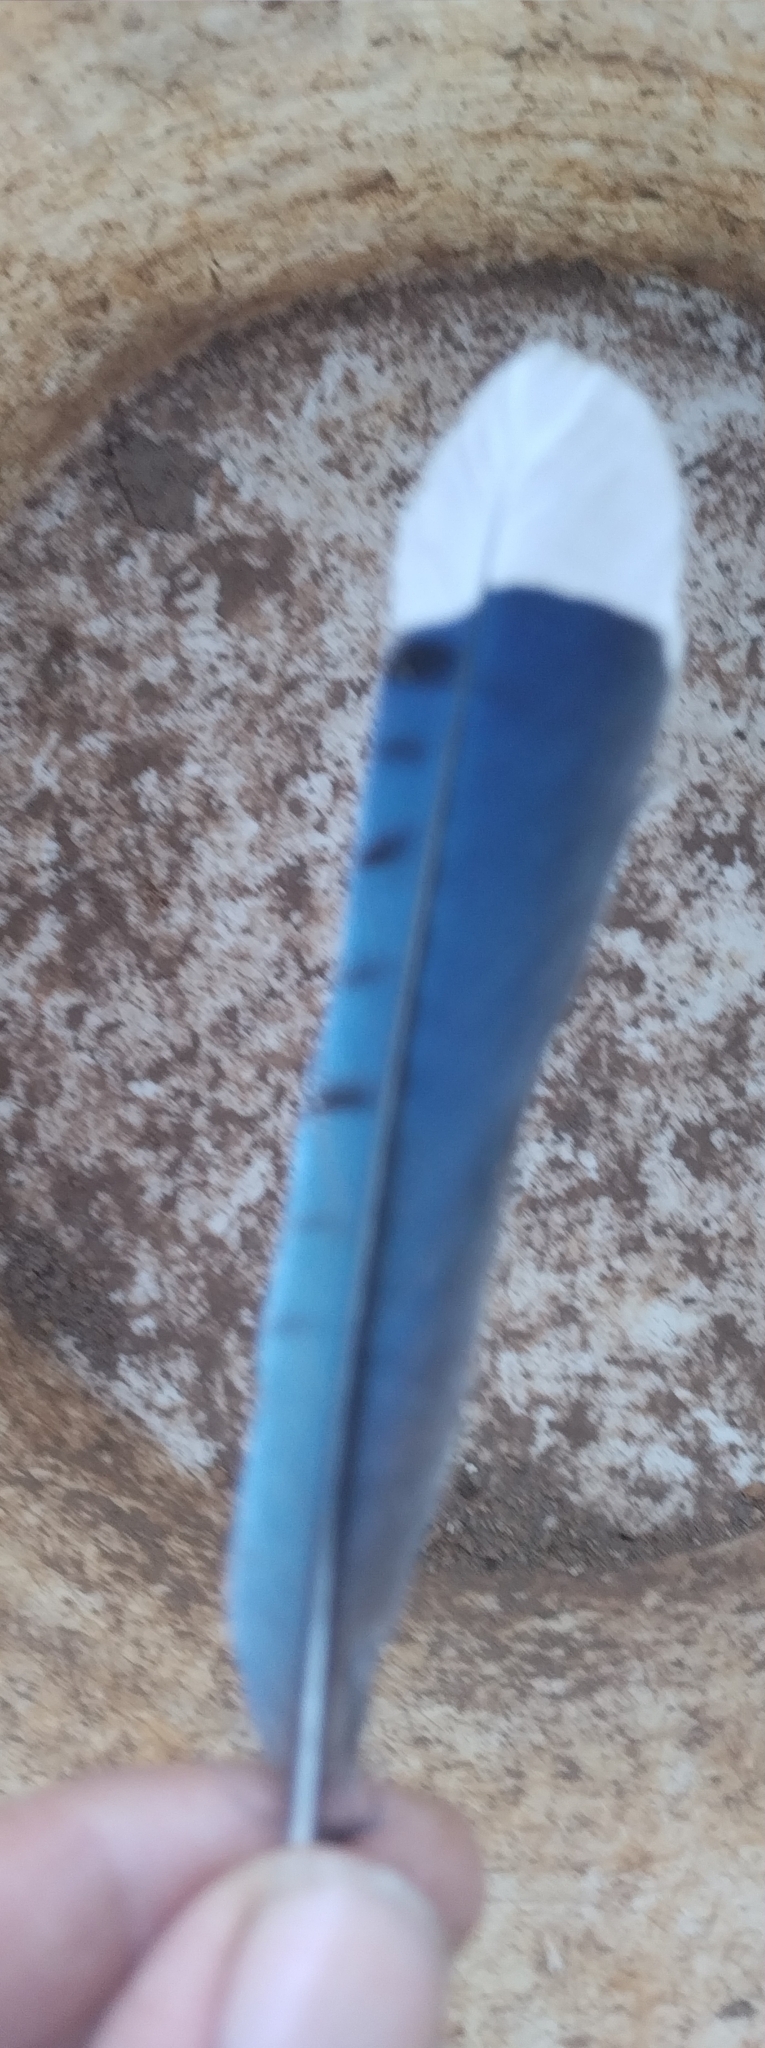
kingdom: Animalia
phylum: Chordata
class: Aves
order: Passeriformes
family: Corvidae
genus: Cyanocitta
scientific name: Cyanocitta cristata
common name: Blue jay
